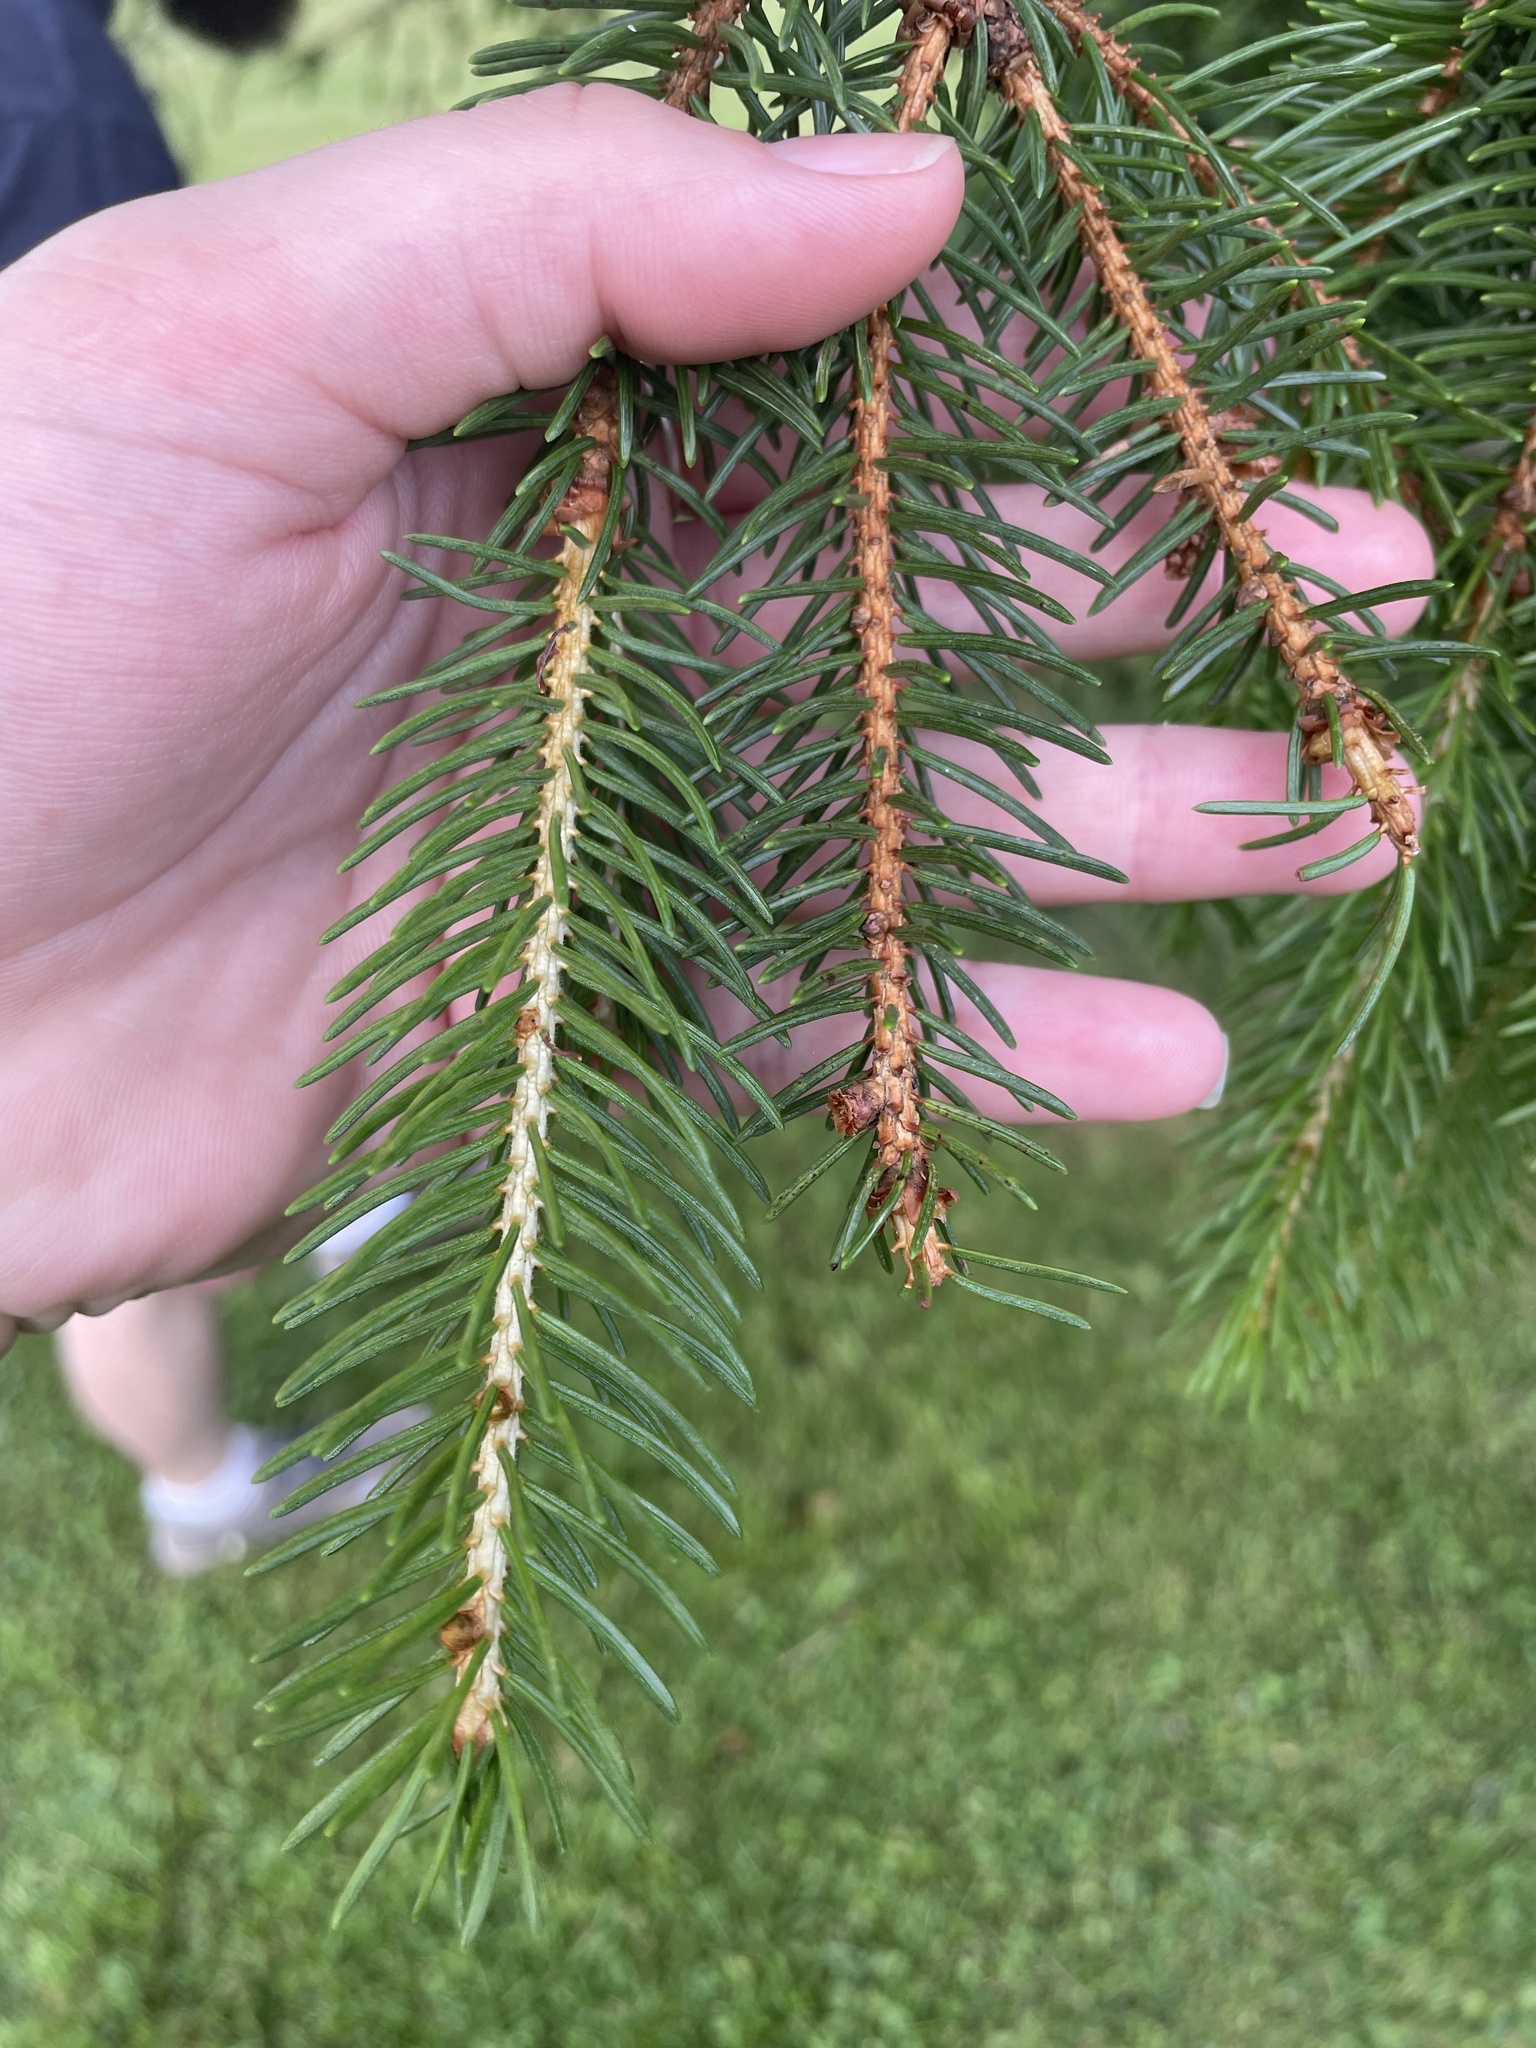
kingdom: Plantae
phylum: Tracheophyta
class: Pinopsida
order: Pinales
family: Pinaceae
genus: Picea
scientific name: Picea glauca
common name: White spruce
